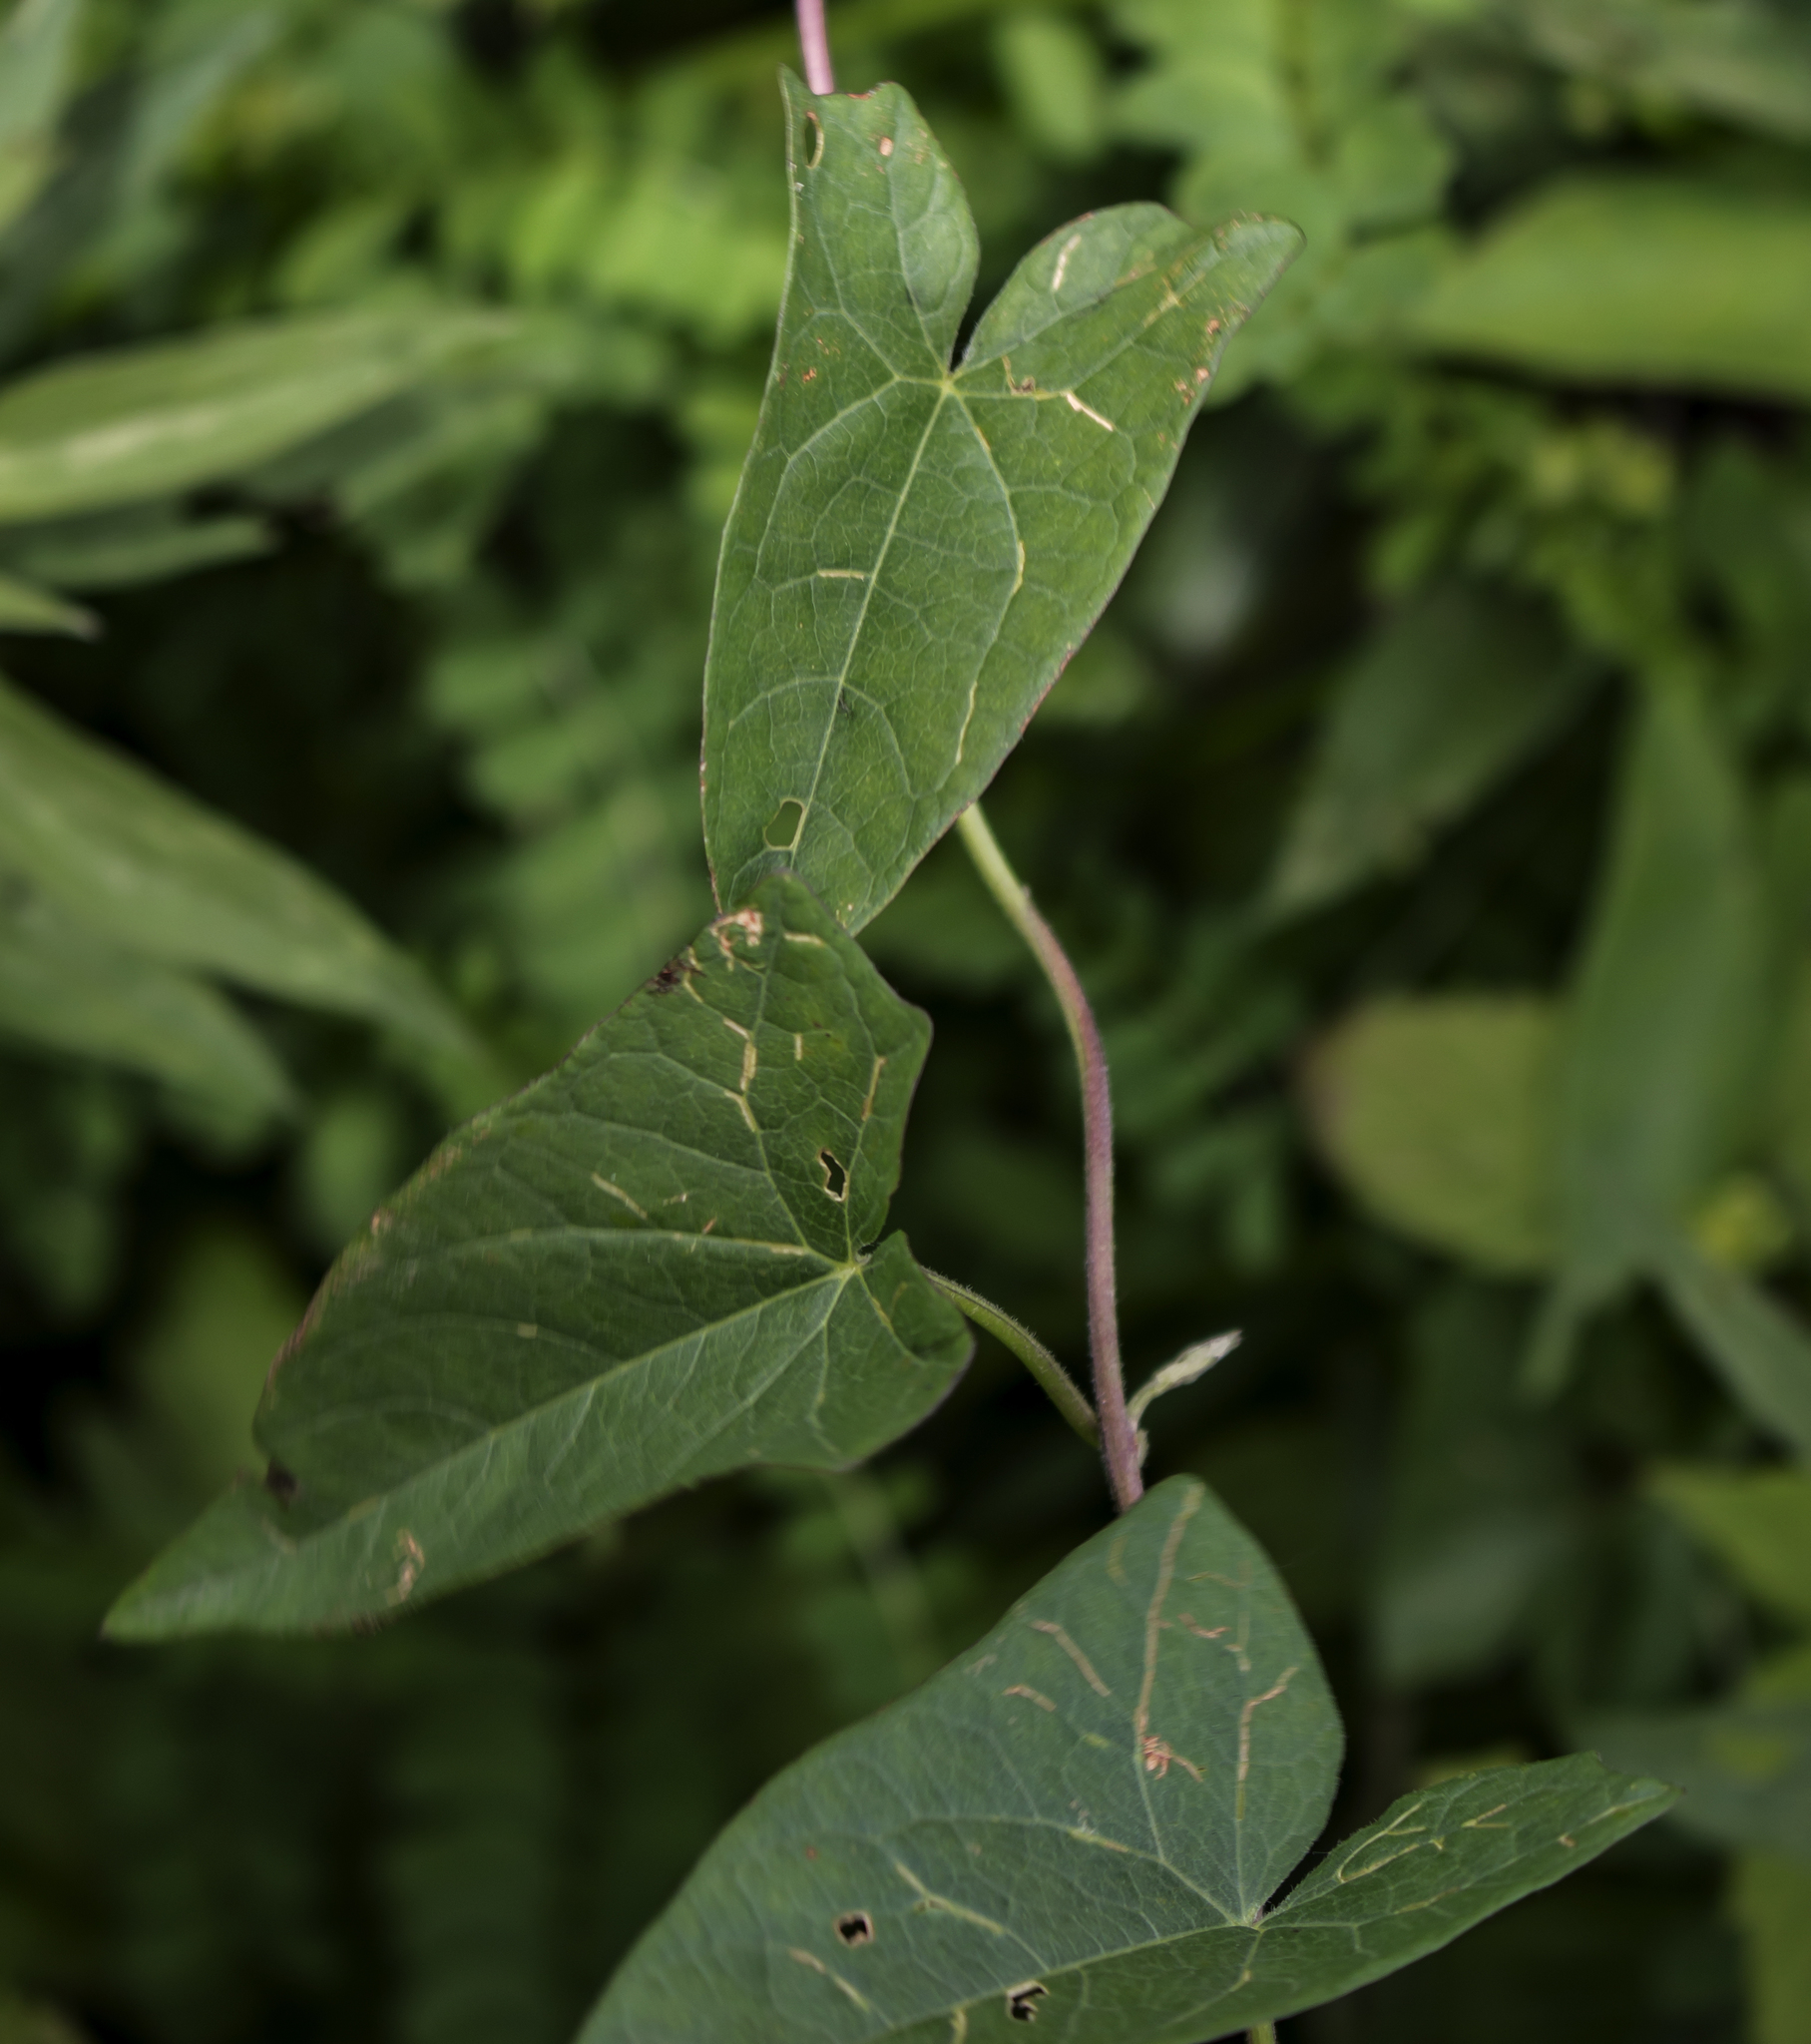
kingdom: Plantae
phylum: Tracheophyta
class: Magnoliopsida
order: Solanales
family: Convolvulaceae
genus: Calystegia
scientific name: Calystegia sepium
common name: Hedge bindweed
